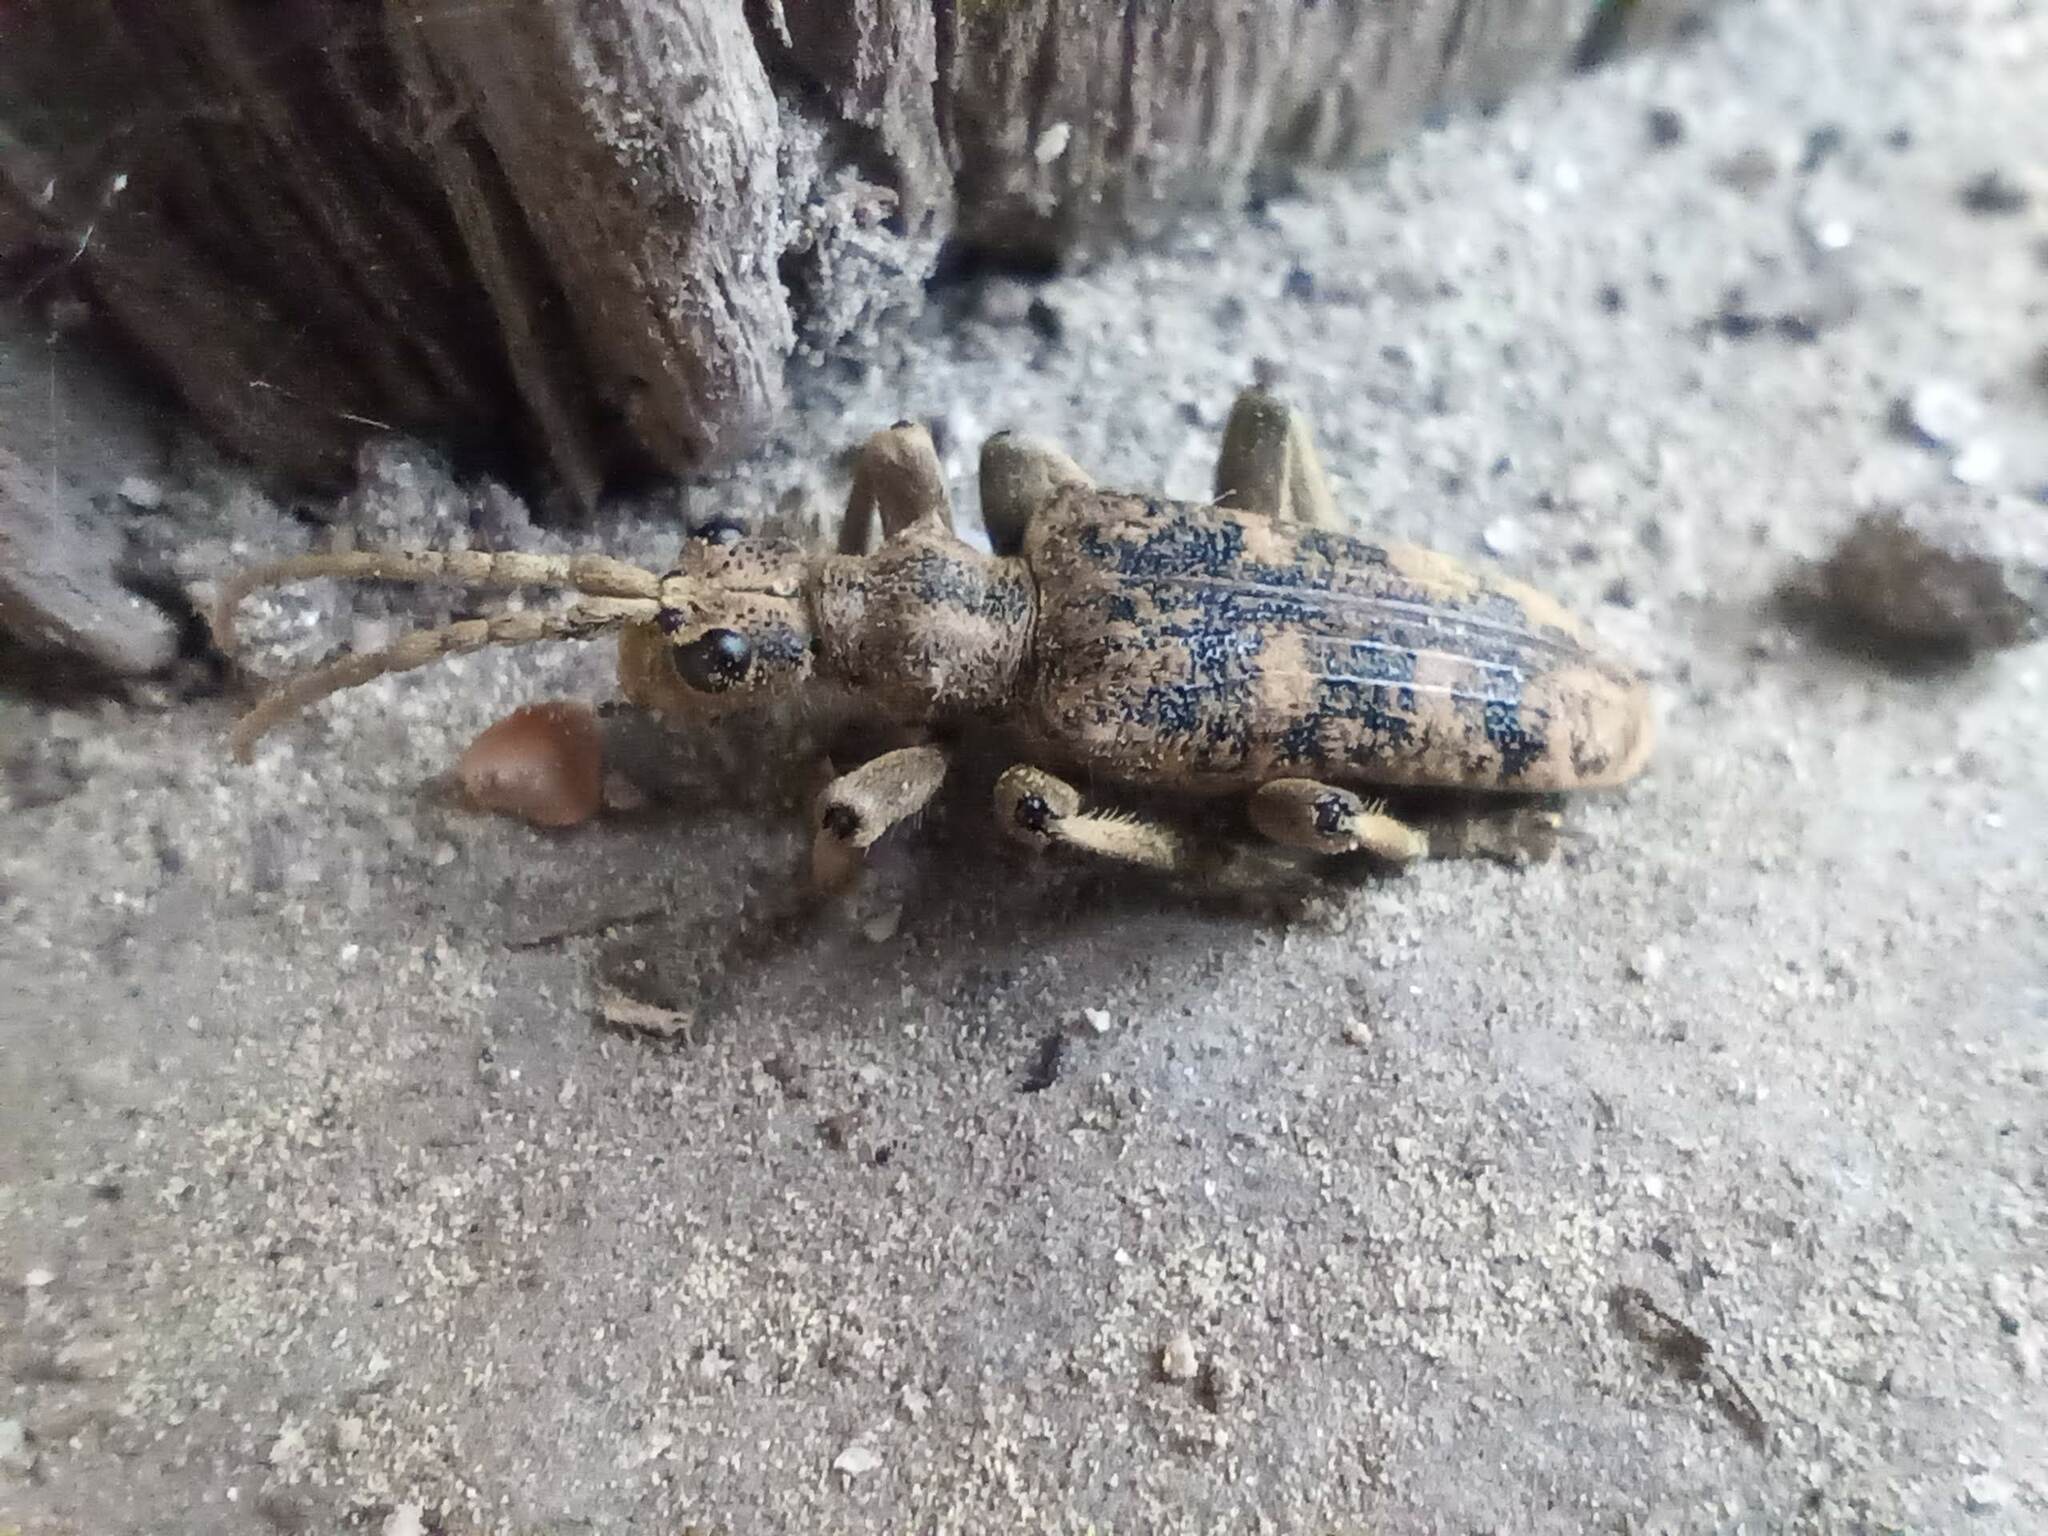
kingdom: Animalia
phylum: Arthropoda
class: Insecta
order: Coleoptera
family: Cerambycidae
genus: Rhagium
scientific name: Rhagium sycophanta
